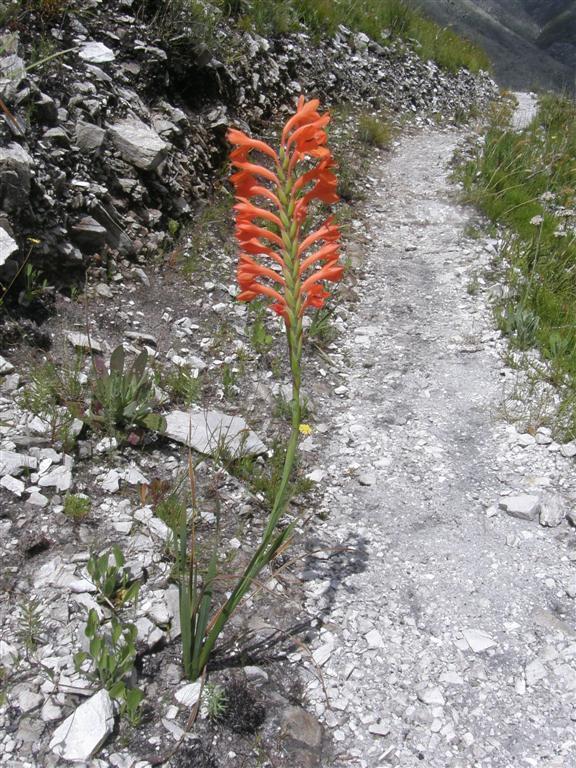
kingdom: Plantae
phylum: Tracheophyta
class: Liliopsida
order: Asparagales
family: Iridaceae
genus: Watsonia
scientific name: Watsonia schlechteri
